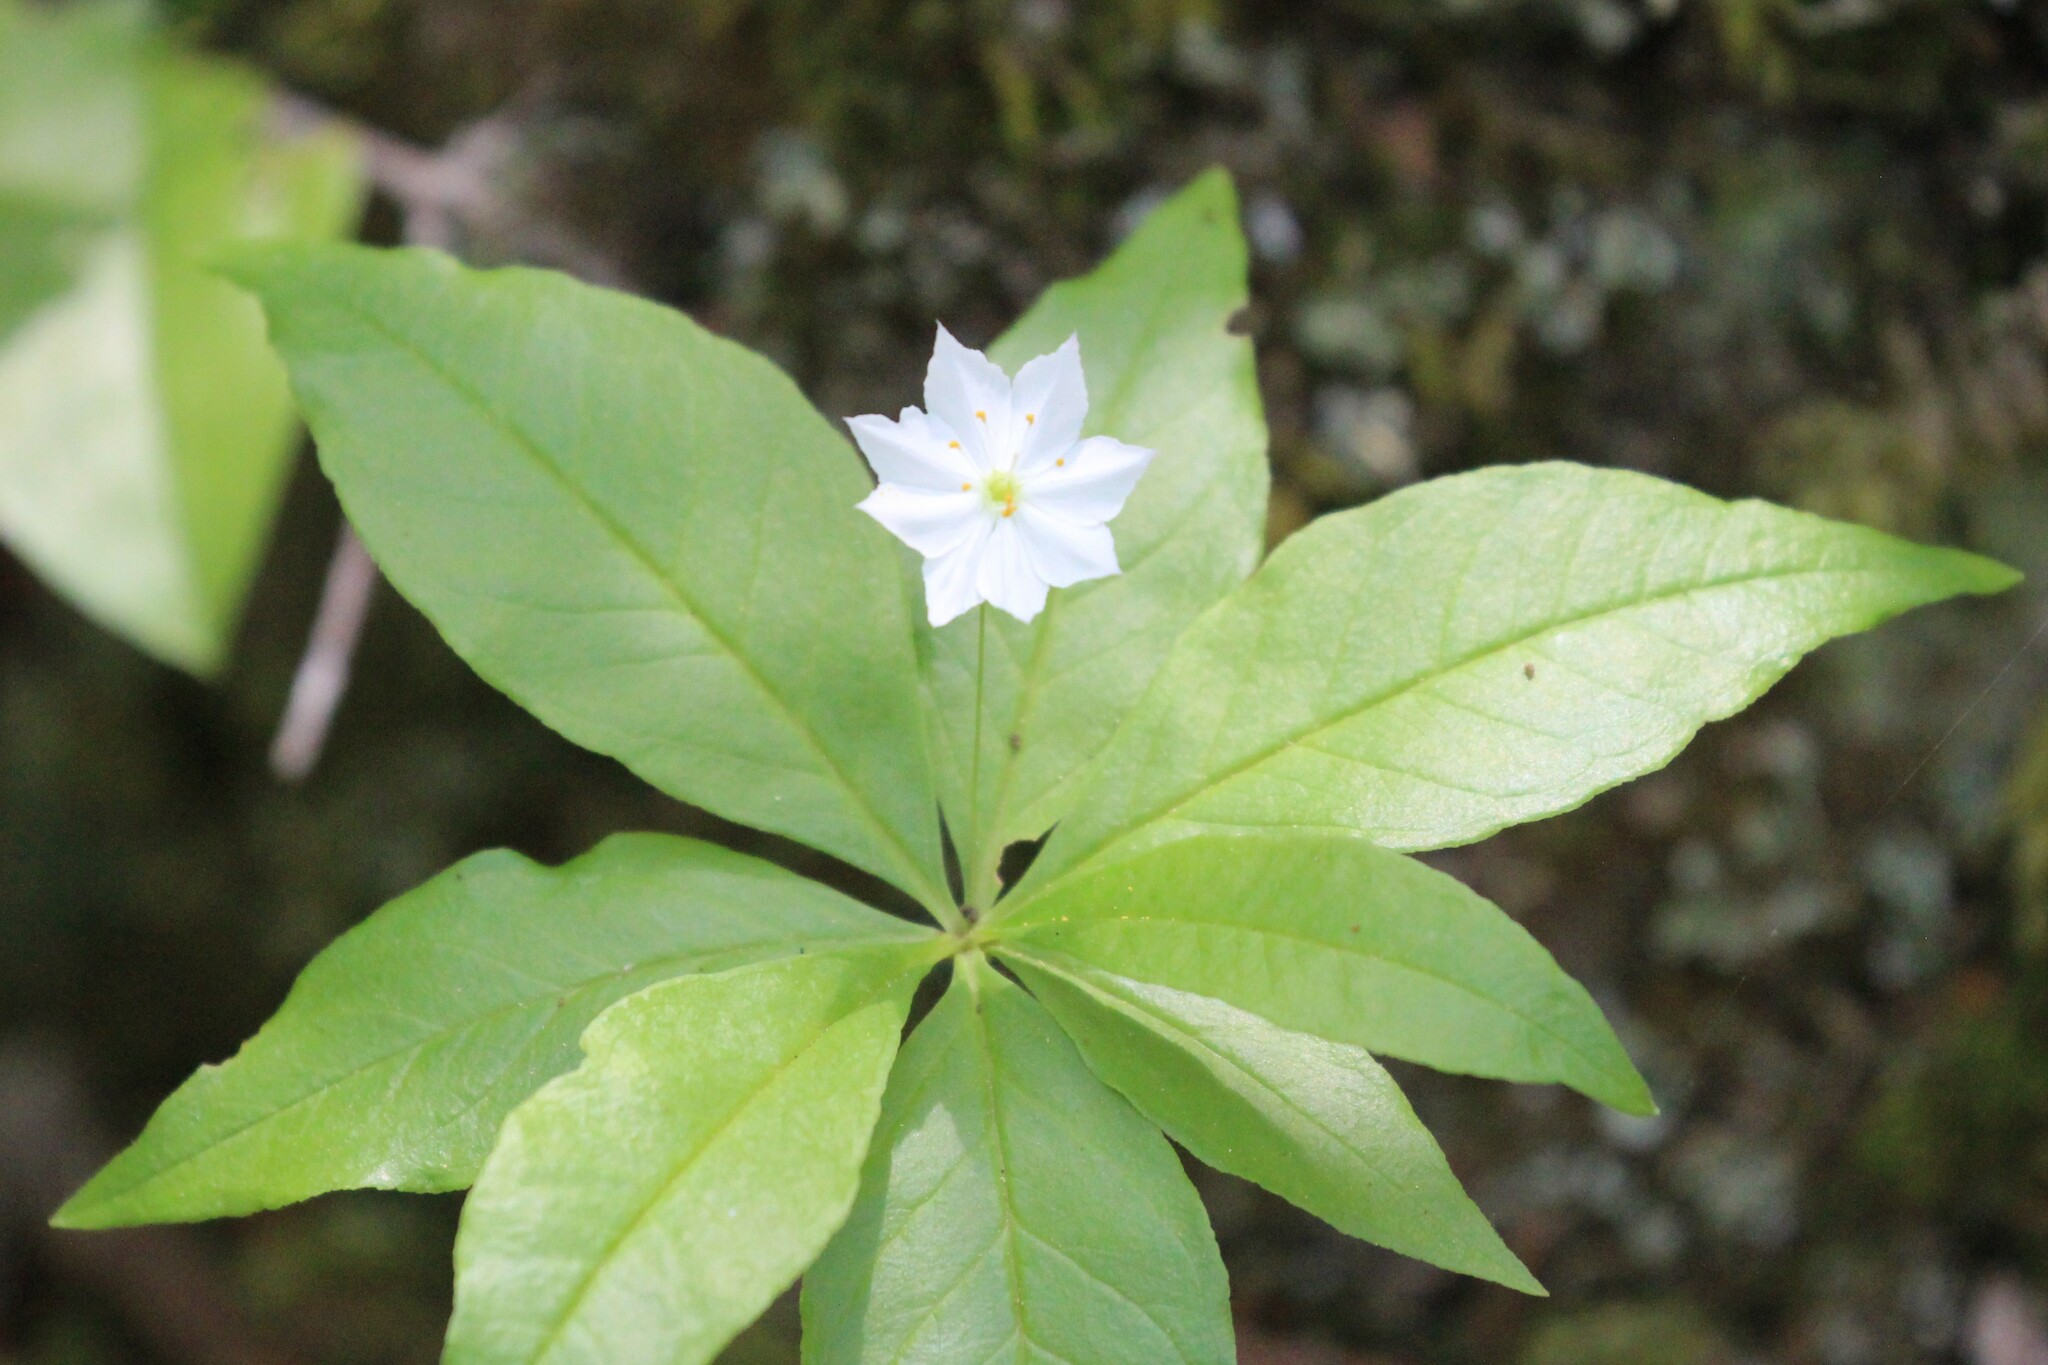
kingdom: Plantae
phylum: Tracheophyta
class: Magnoliopsida
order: Ericales
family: Primulaceae
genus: Lysimachia
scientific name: Lysimachia borealis
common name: American starflower
